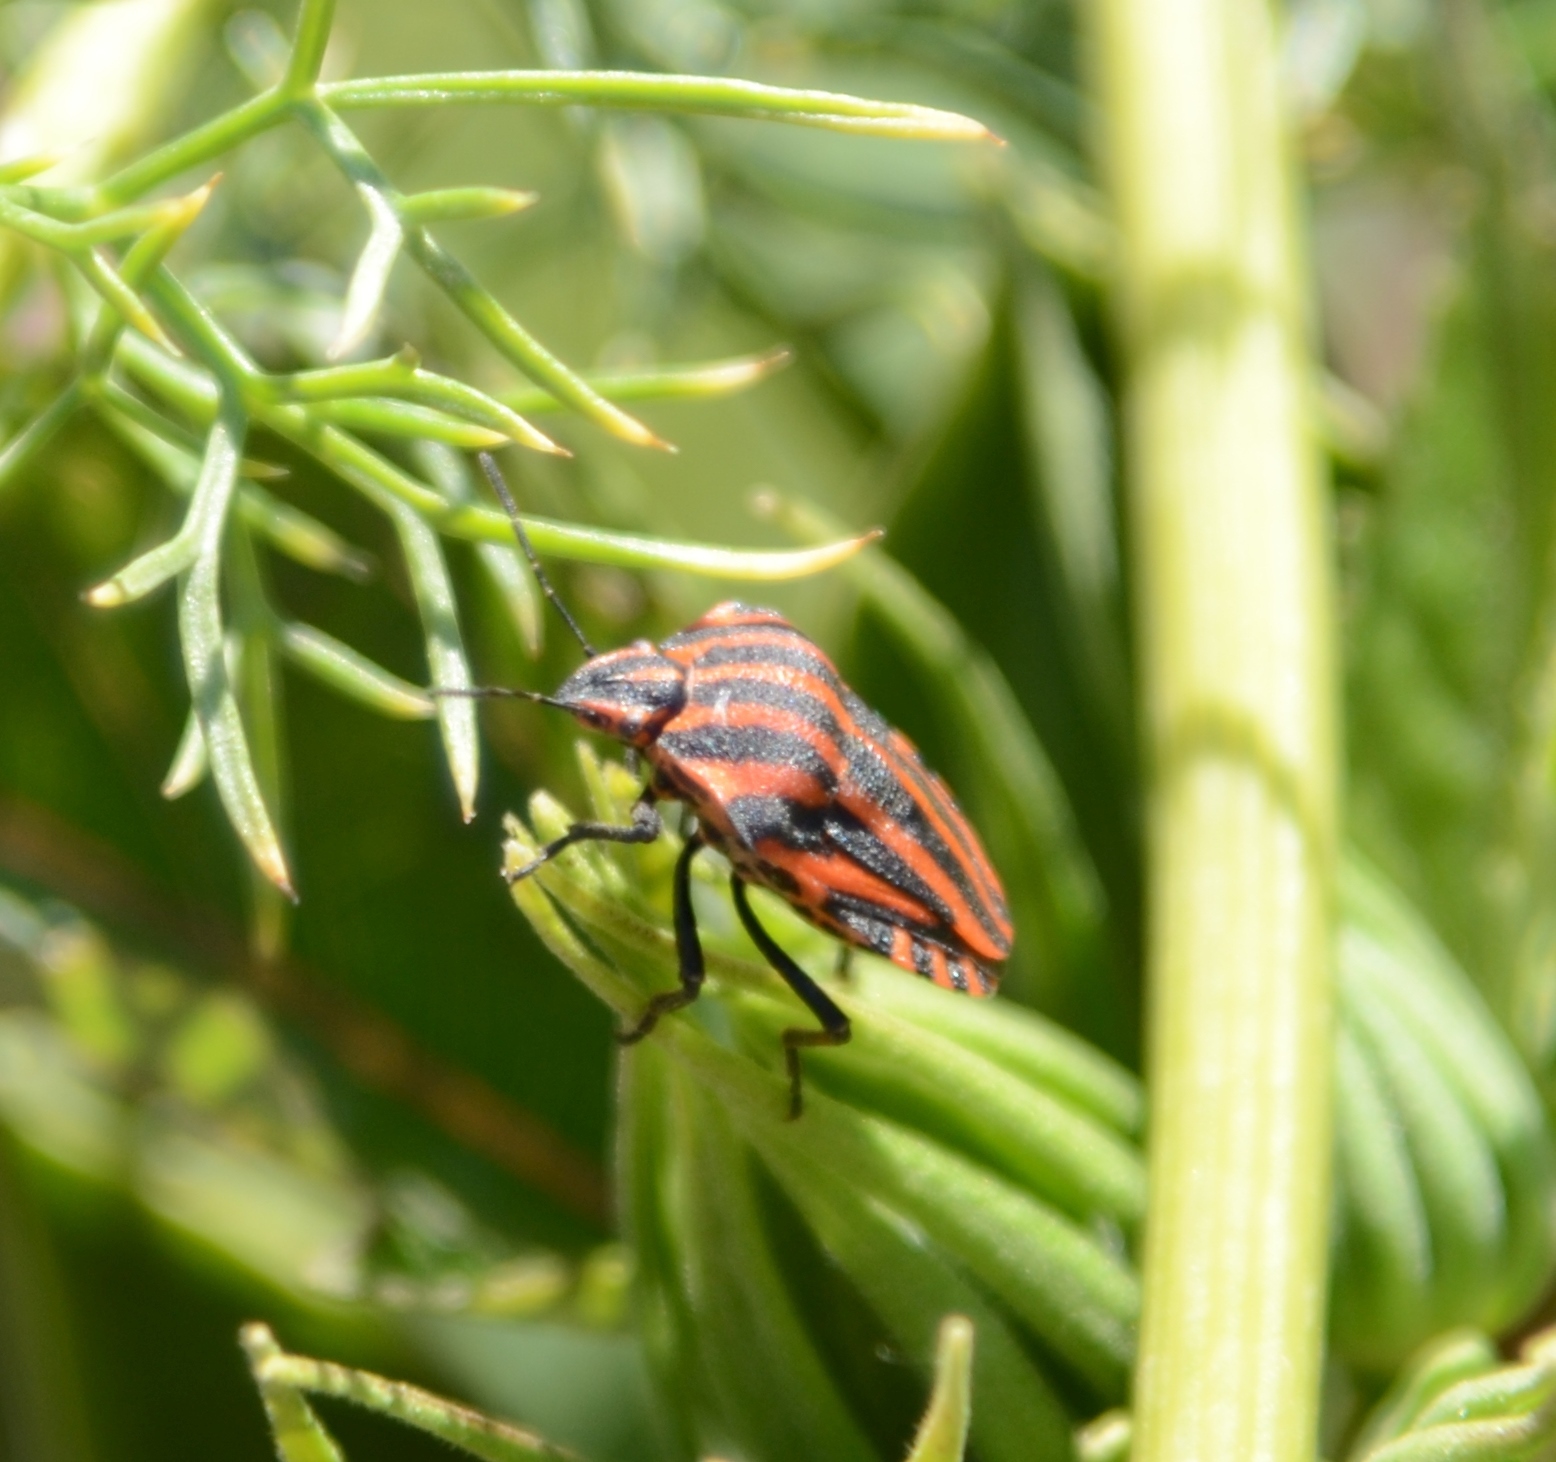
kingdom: Animalia
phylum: Arthropoda
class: Insecta
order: Hemiptera
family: Pentatomidae
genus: Graphosoma
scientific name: Graphosoma italicum
